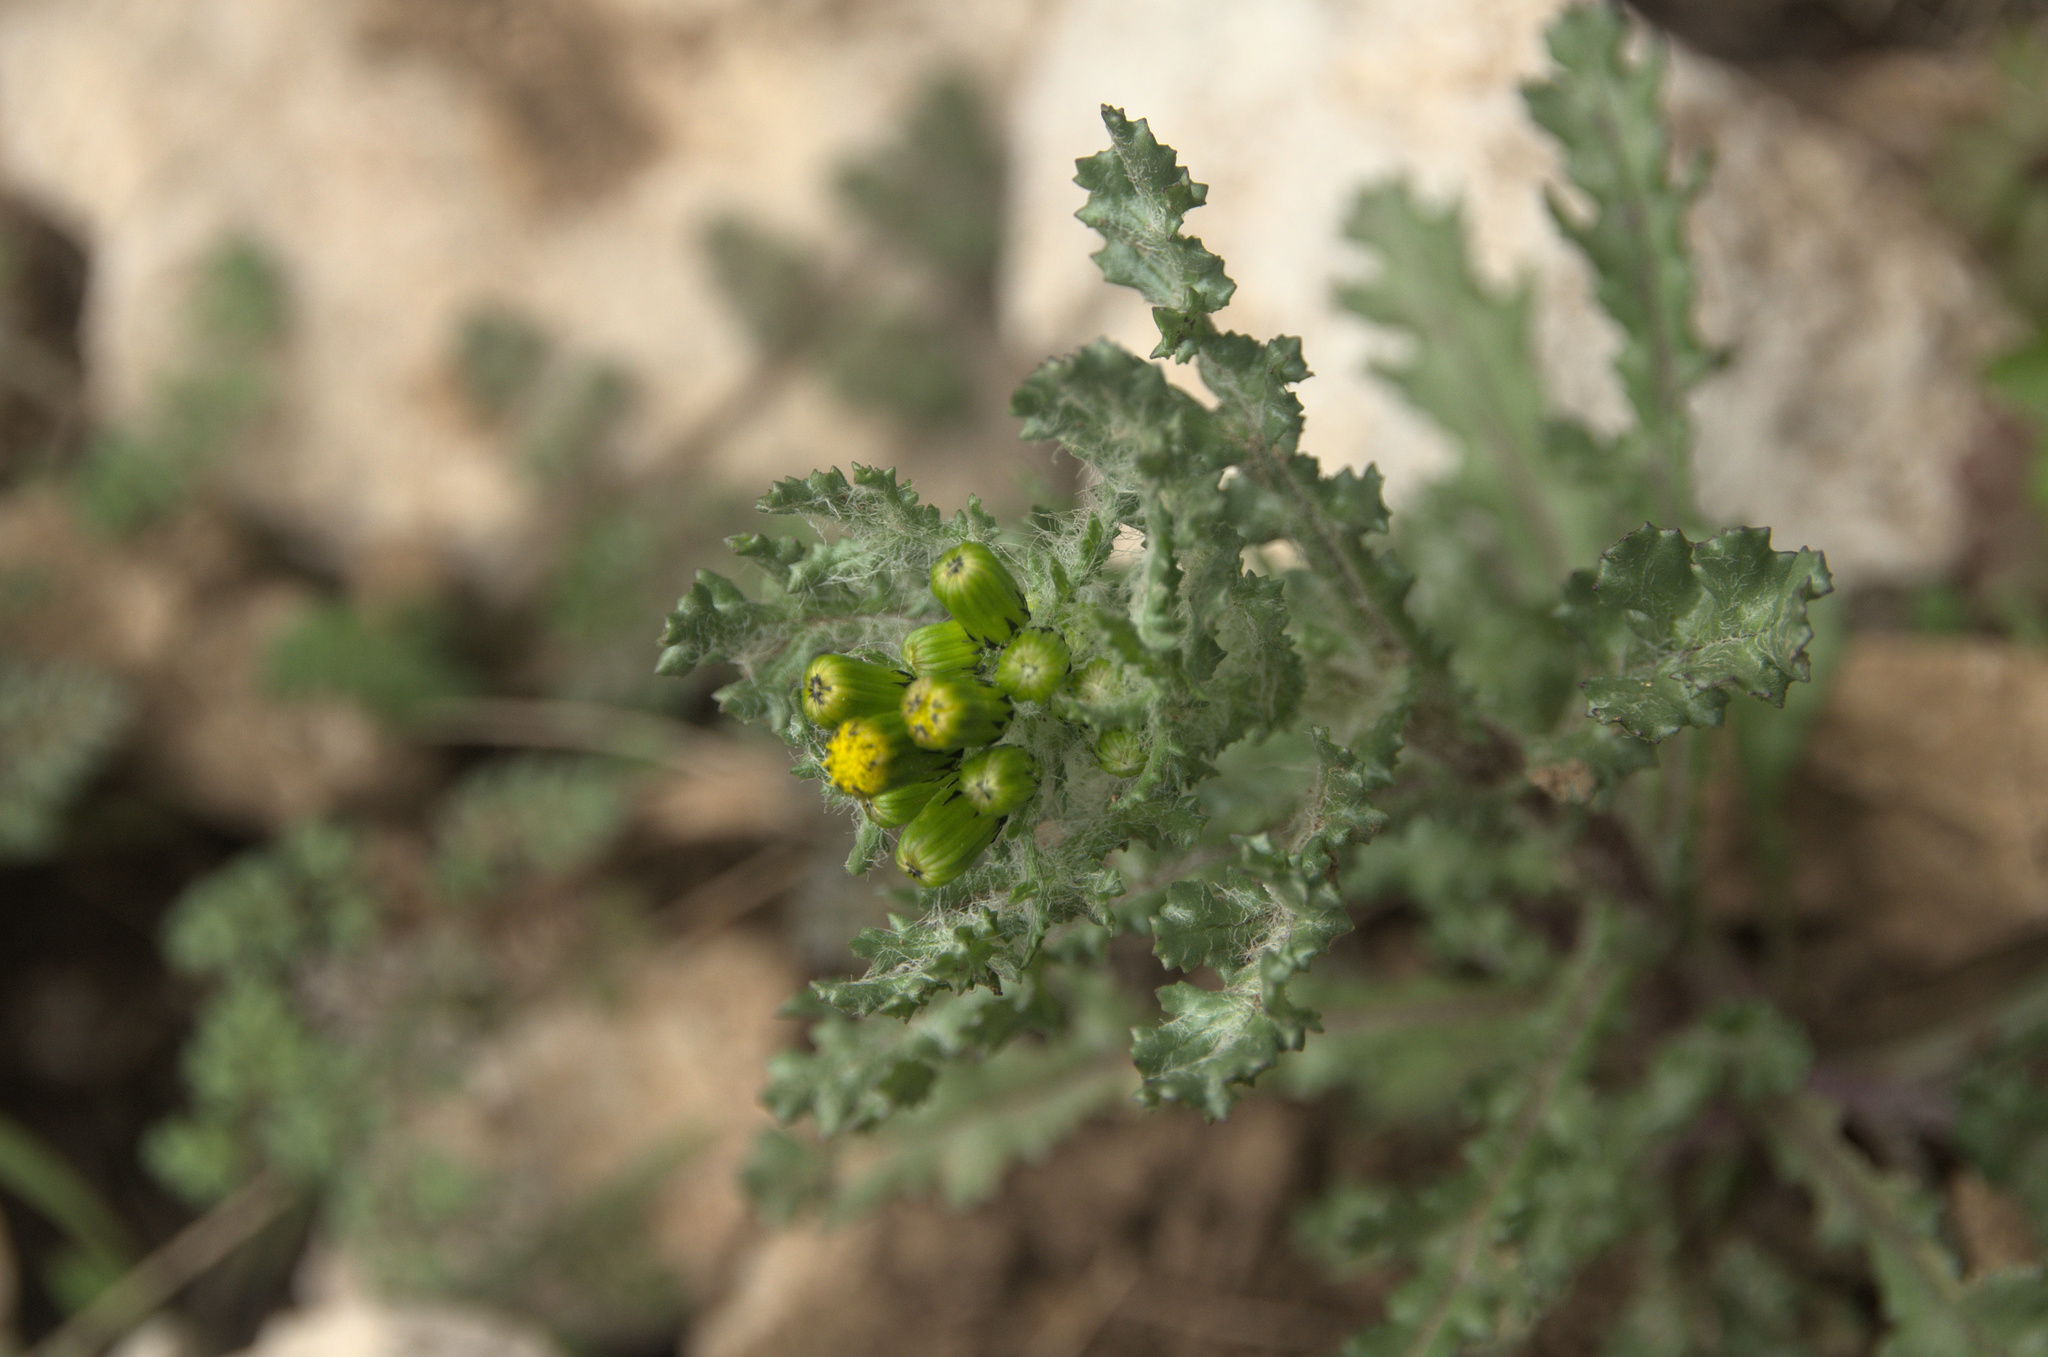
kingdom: Plantae
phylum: Tracheophyta
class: Magnoliopsida
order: Asterales
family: Asteraceae
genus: Senecio
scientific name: Senecio vulgaris
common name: Old-man-in-the-spring
